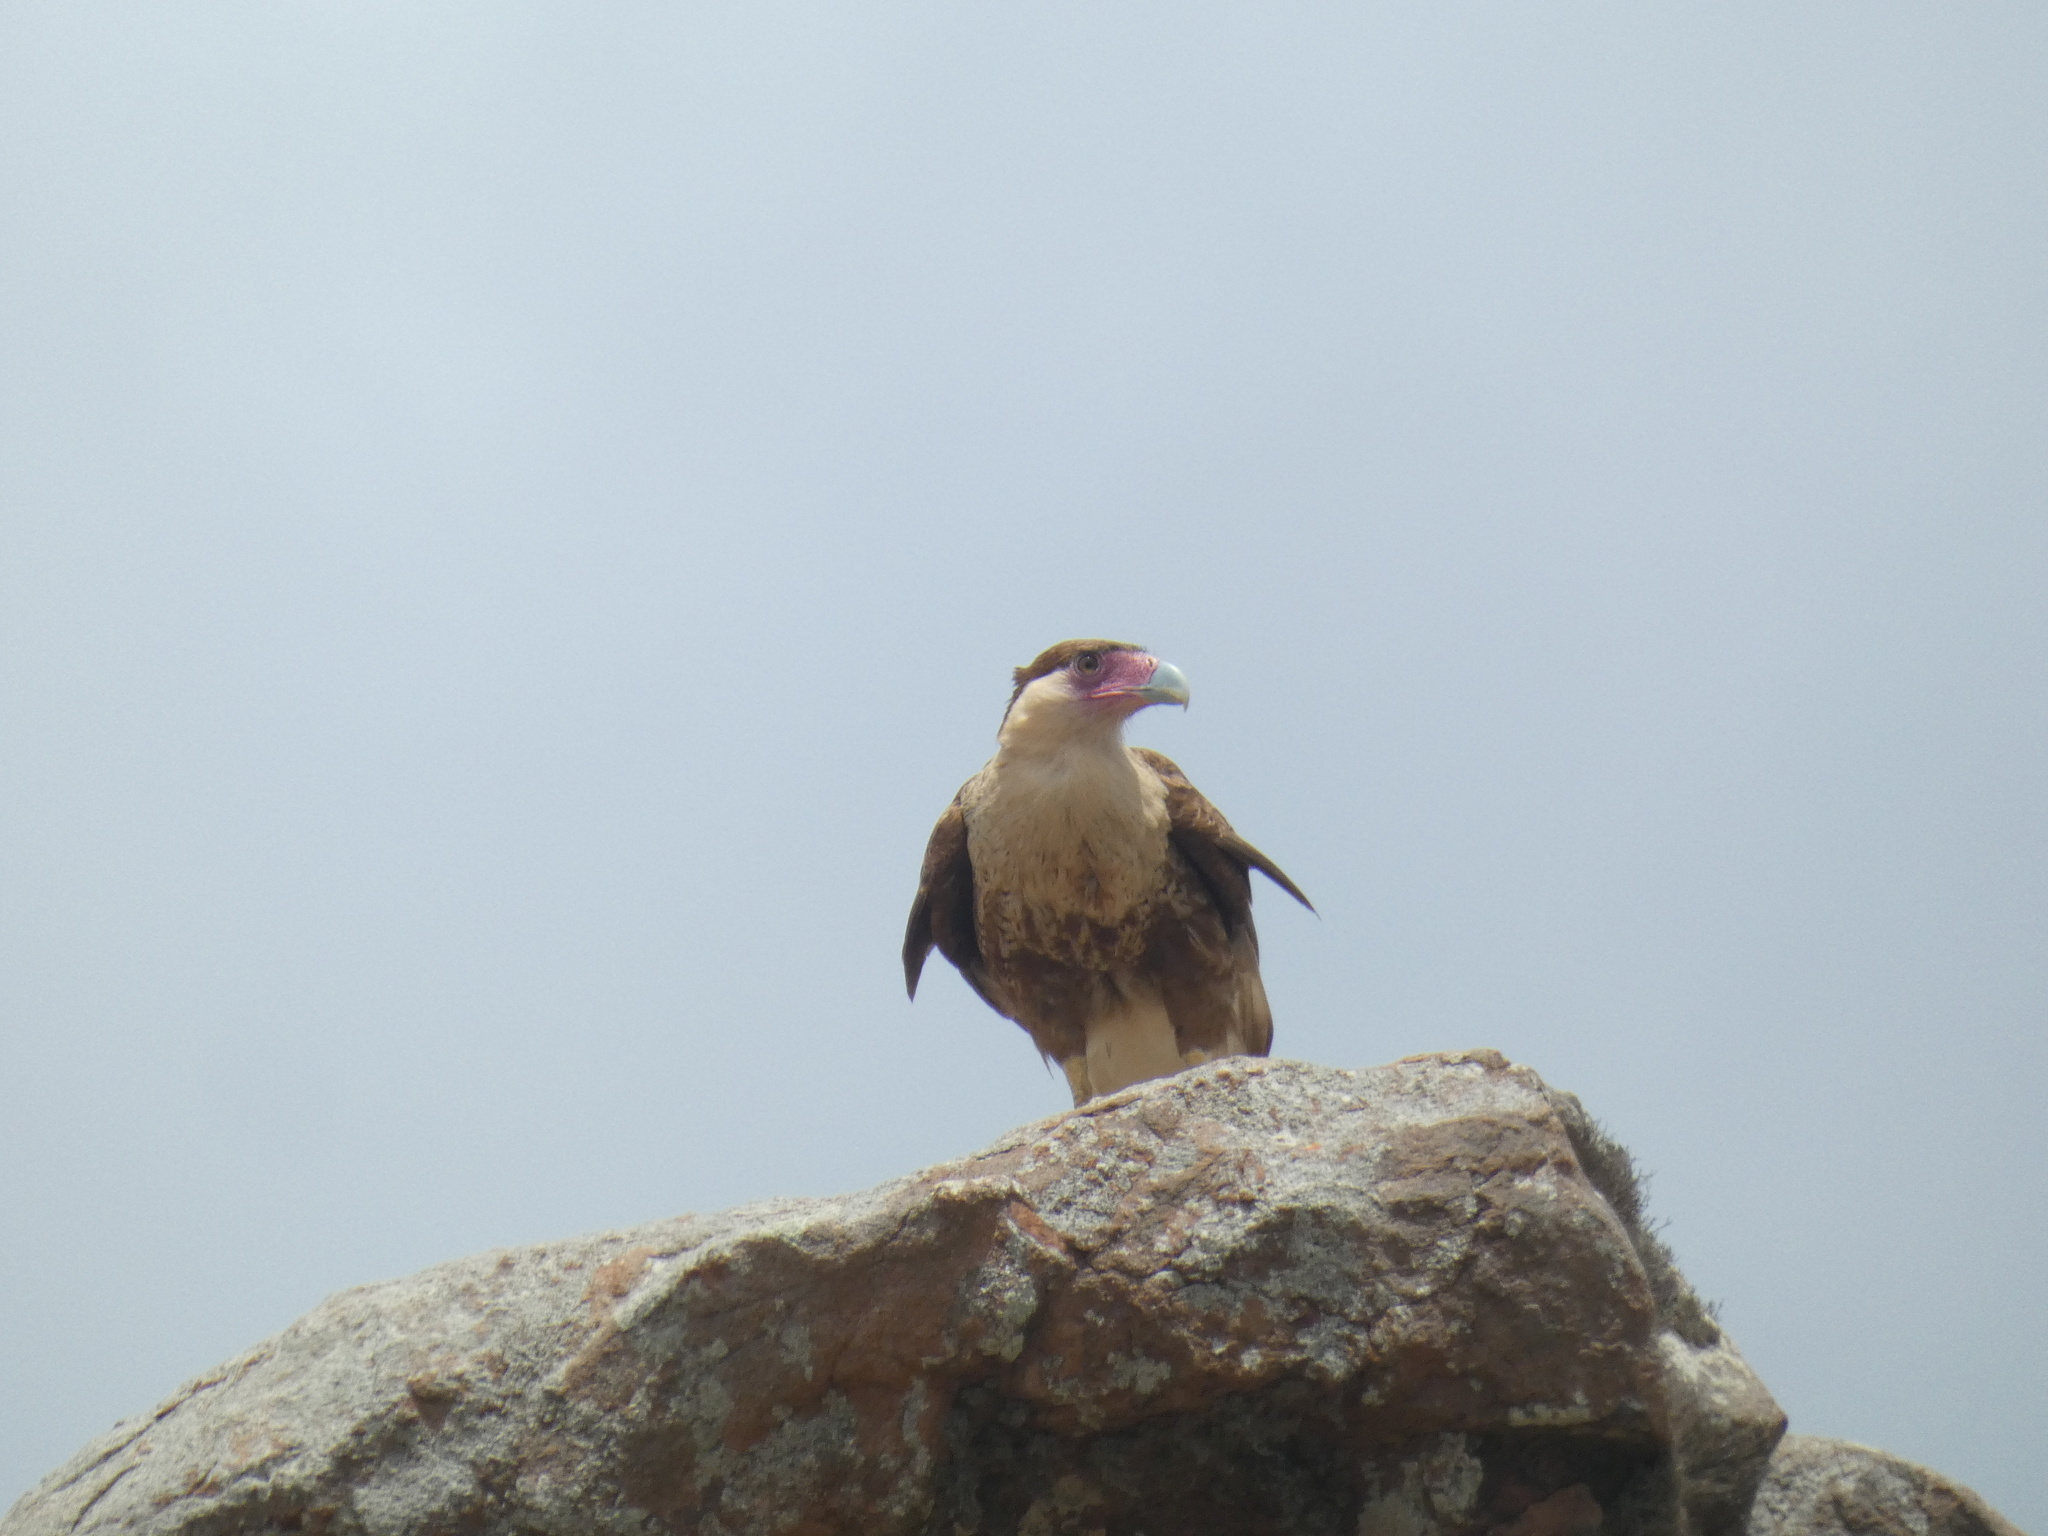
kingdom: Animalia
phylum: Chordata
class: Aves
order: Falconiformes
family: Falconidae
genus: Caracara
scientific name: Caracara plancus
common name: Southern caracara
